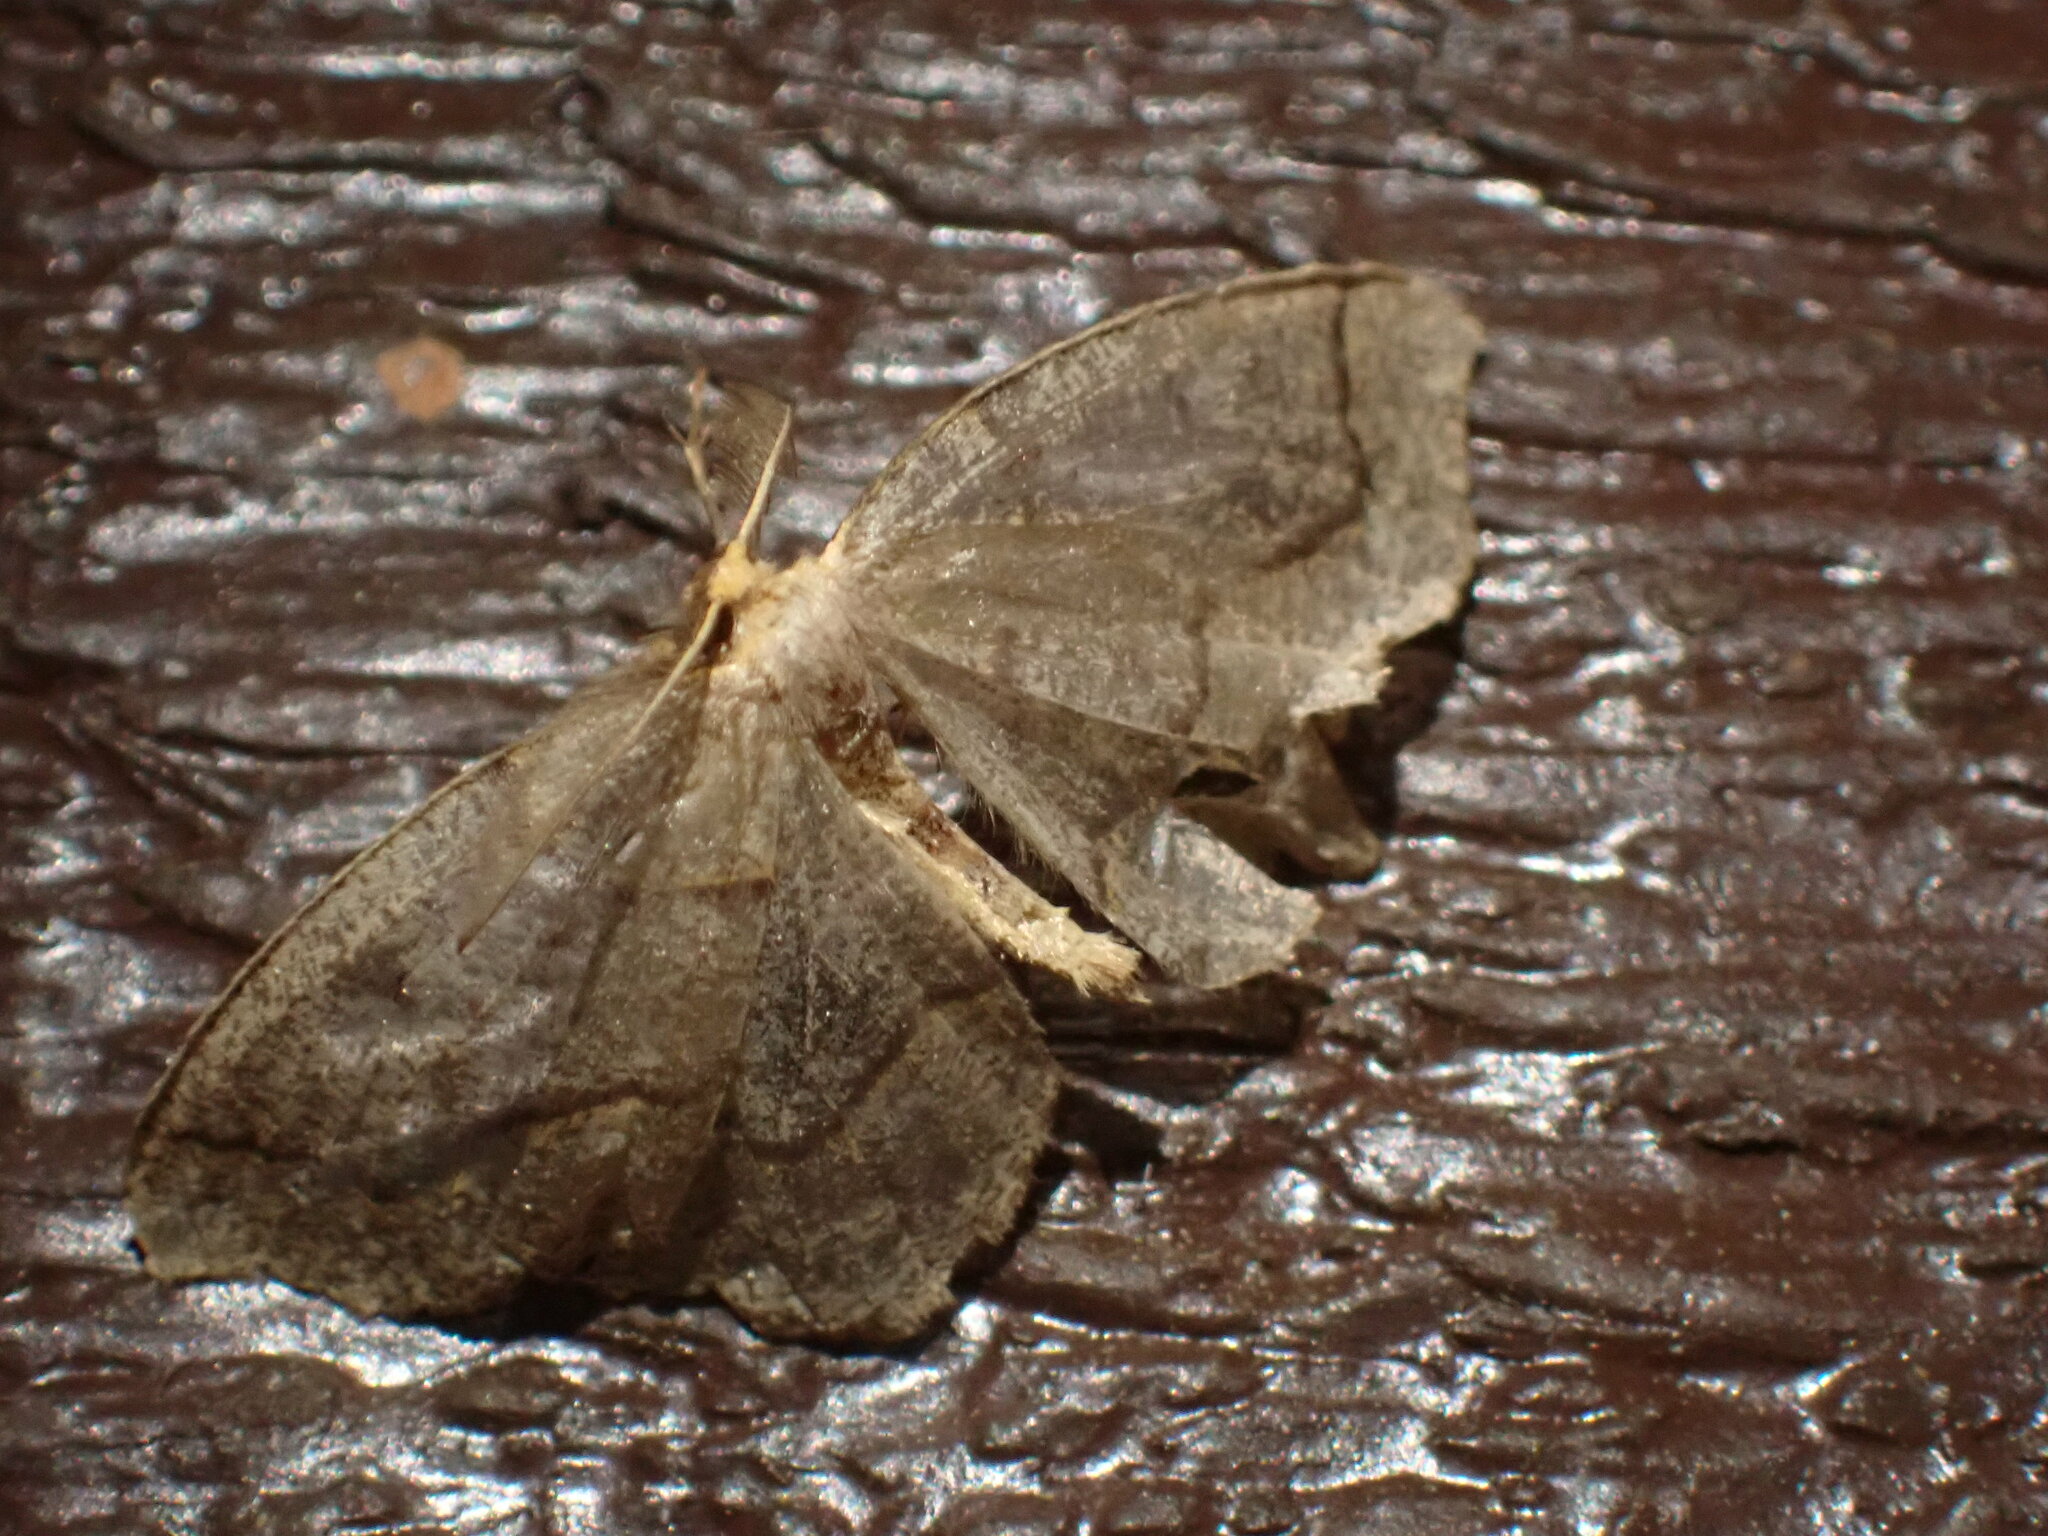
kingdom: Animalia
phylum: Arthropoda
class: Insecta
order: Lepidoptera
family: Geometridae
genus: Lambdina
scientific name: Lambdina fiscellaria
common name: Hemlock looper
